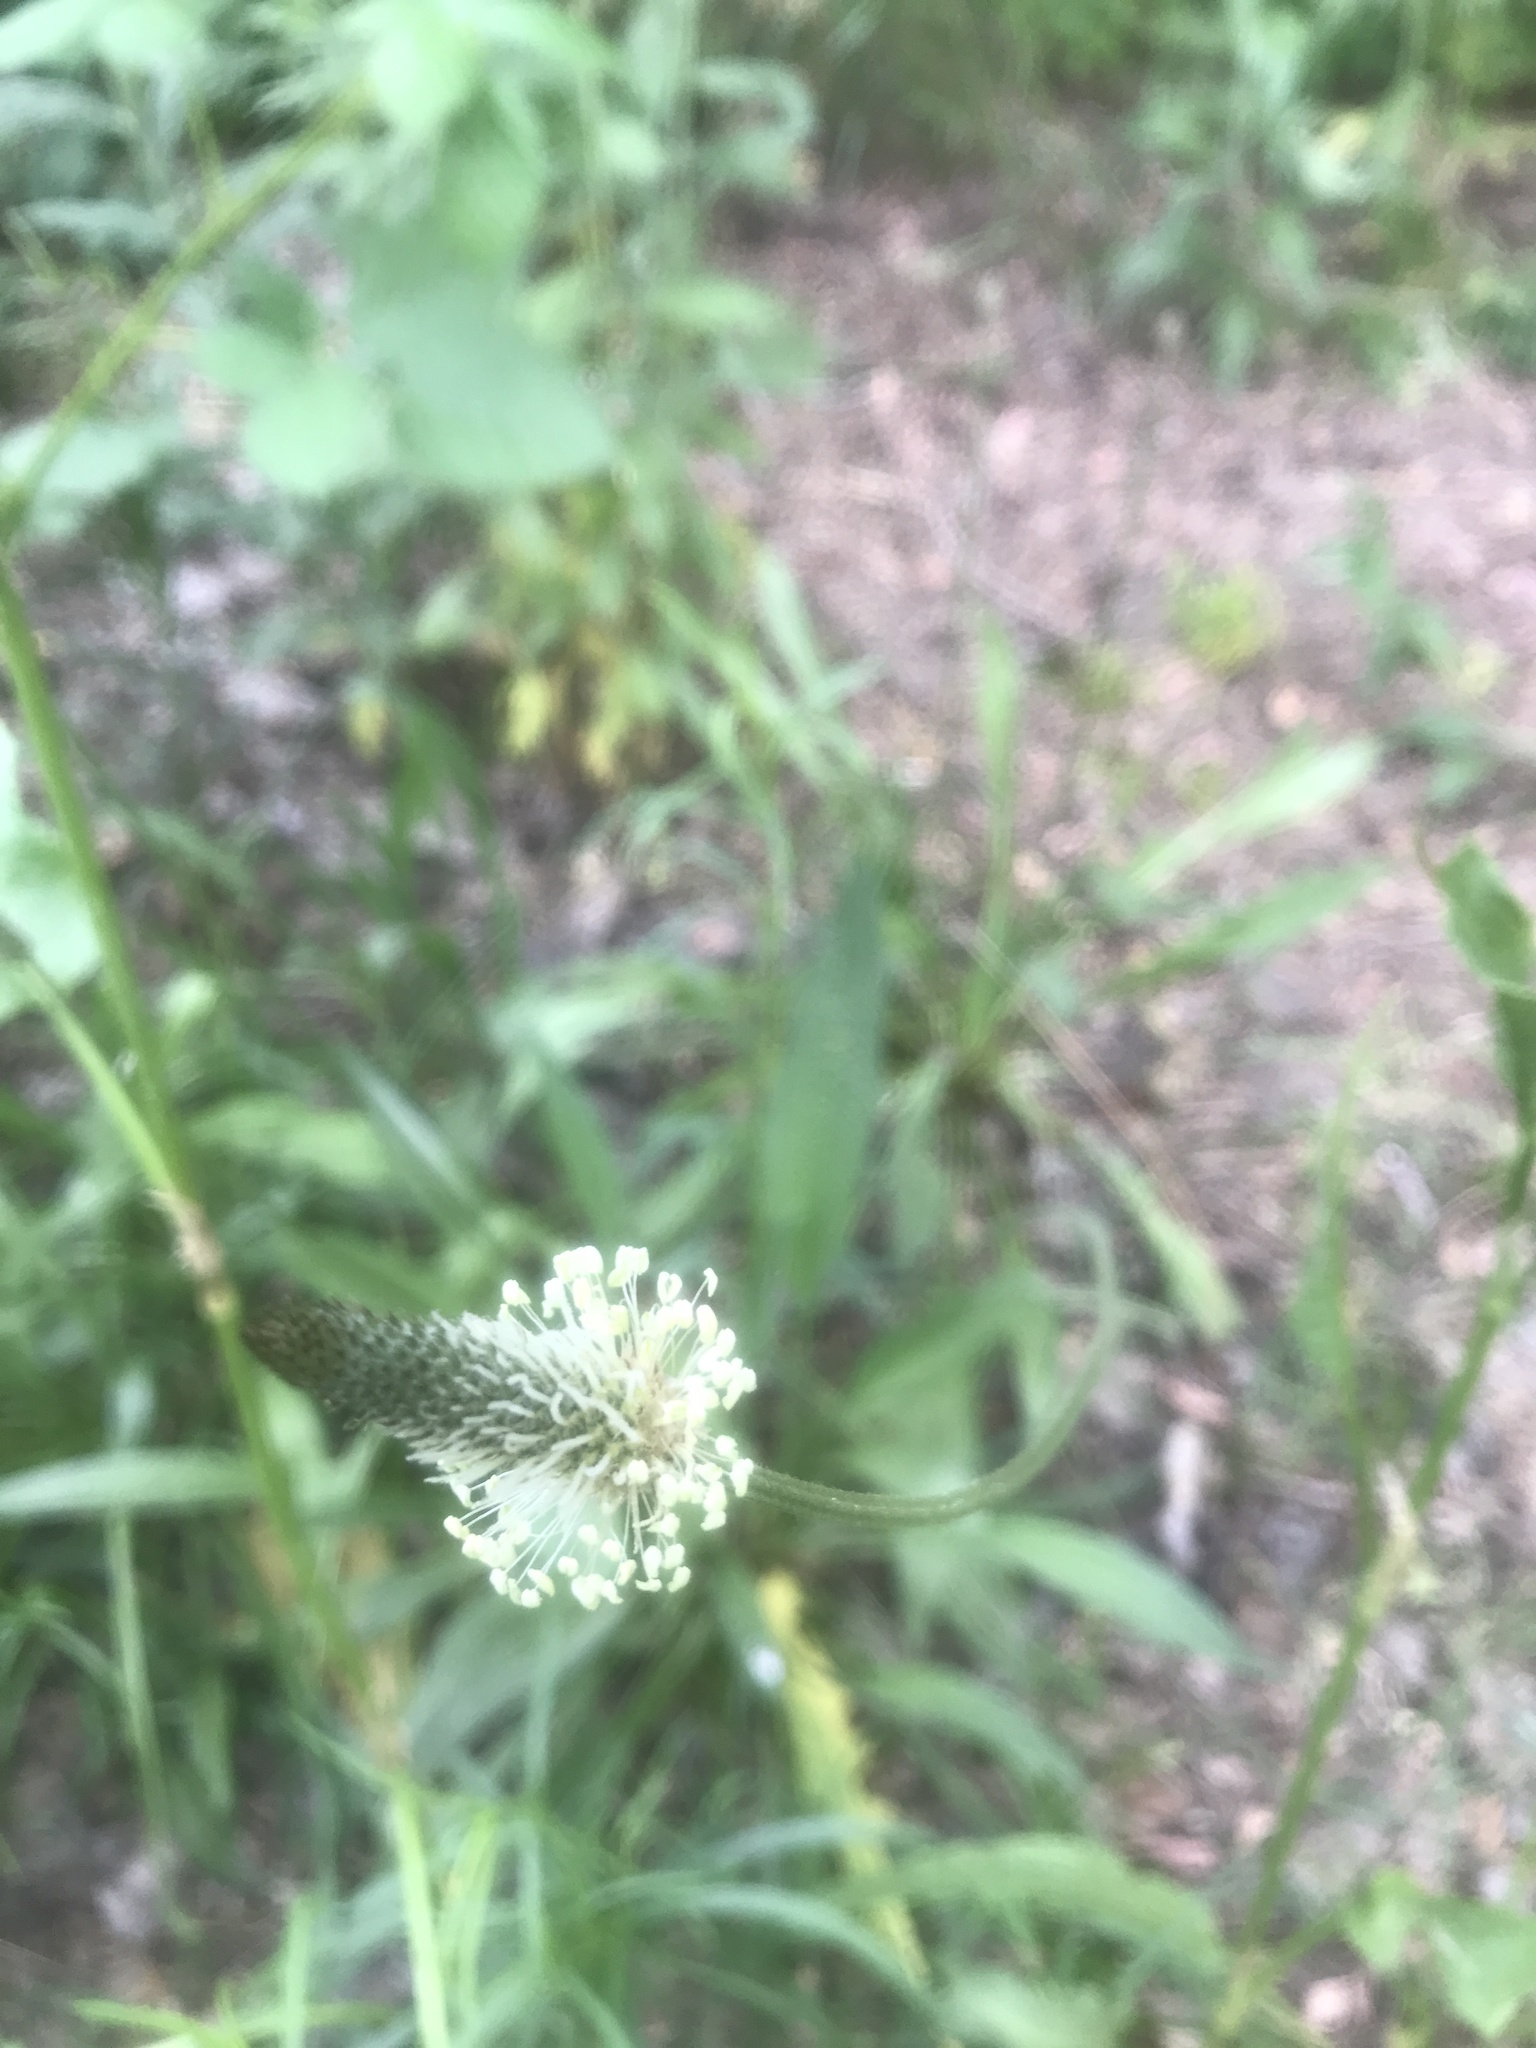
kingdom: Plantae
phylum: Tracheophyta
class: Magnoliopsida
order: Lamiales
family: Plantaginaceae
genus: Plantago
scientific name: Plantago lanceolata
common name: Ribwort plantain
